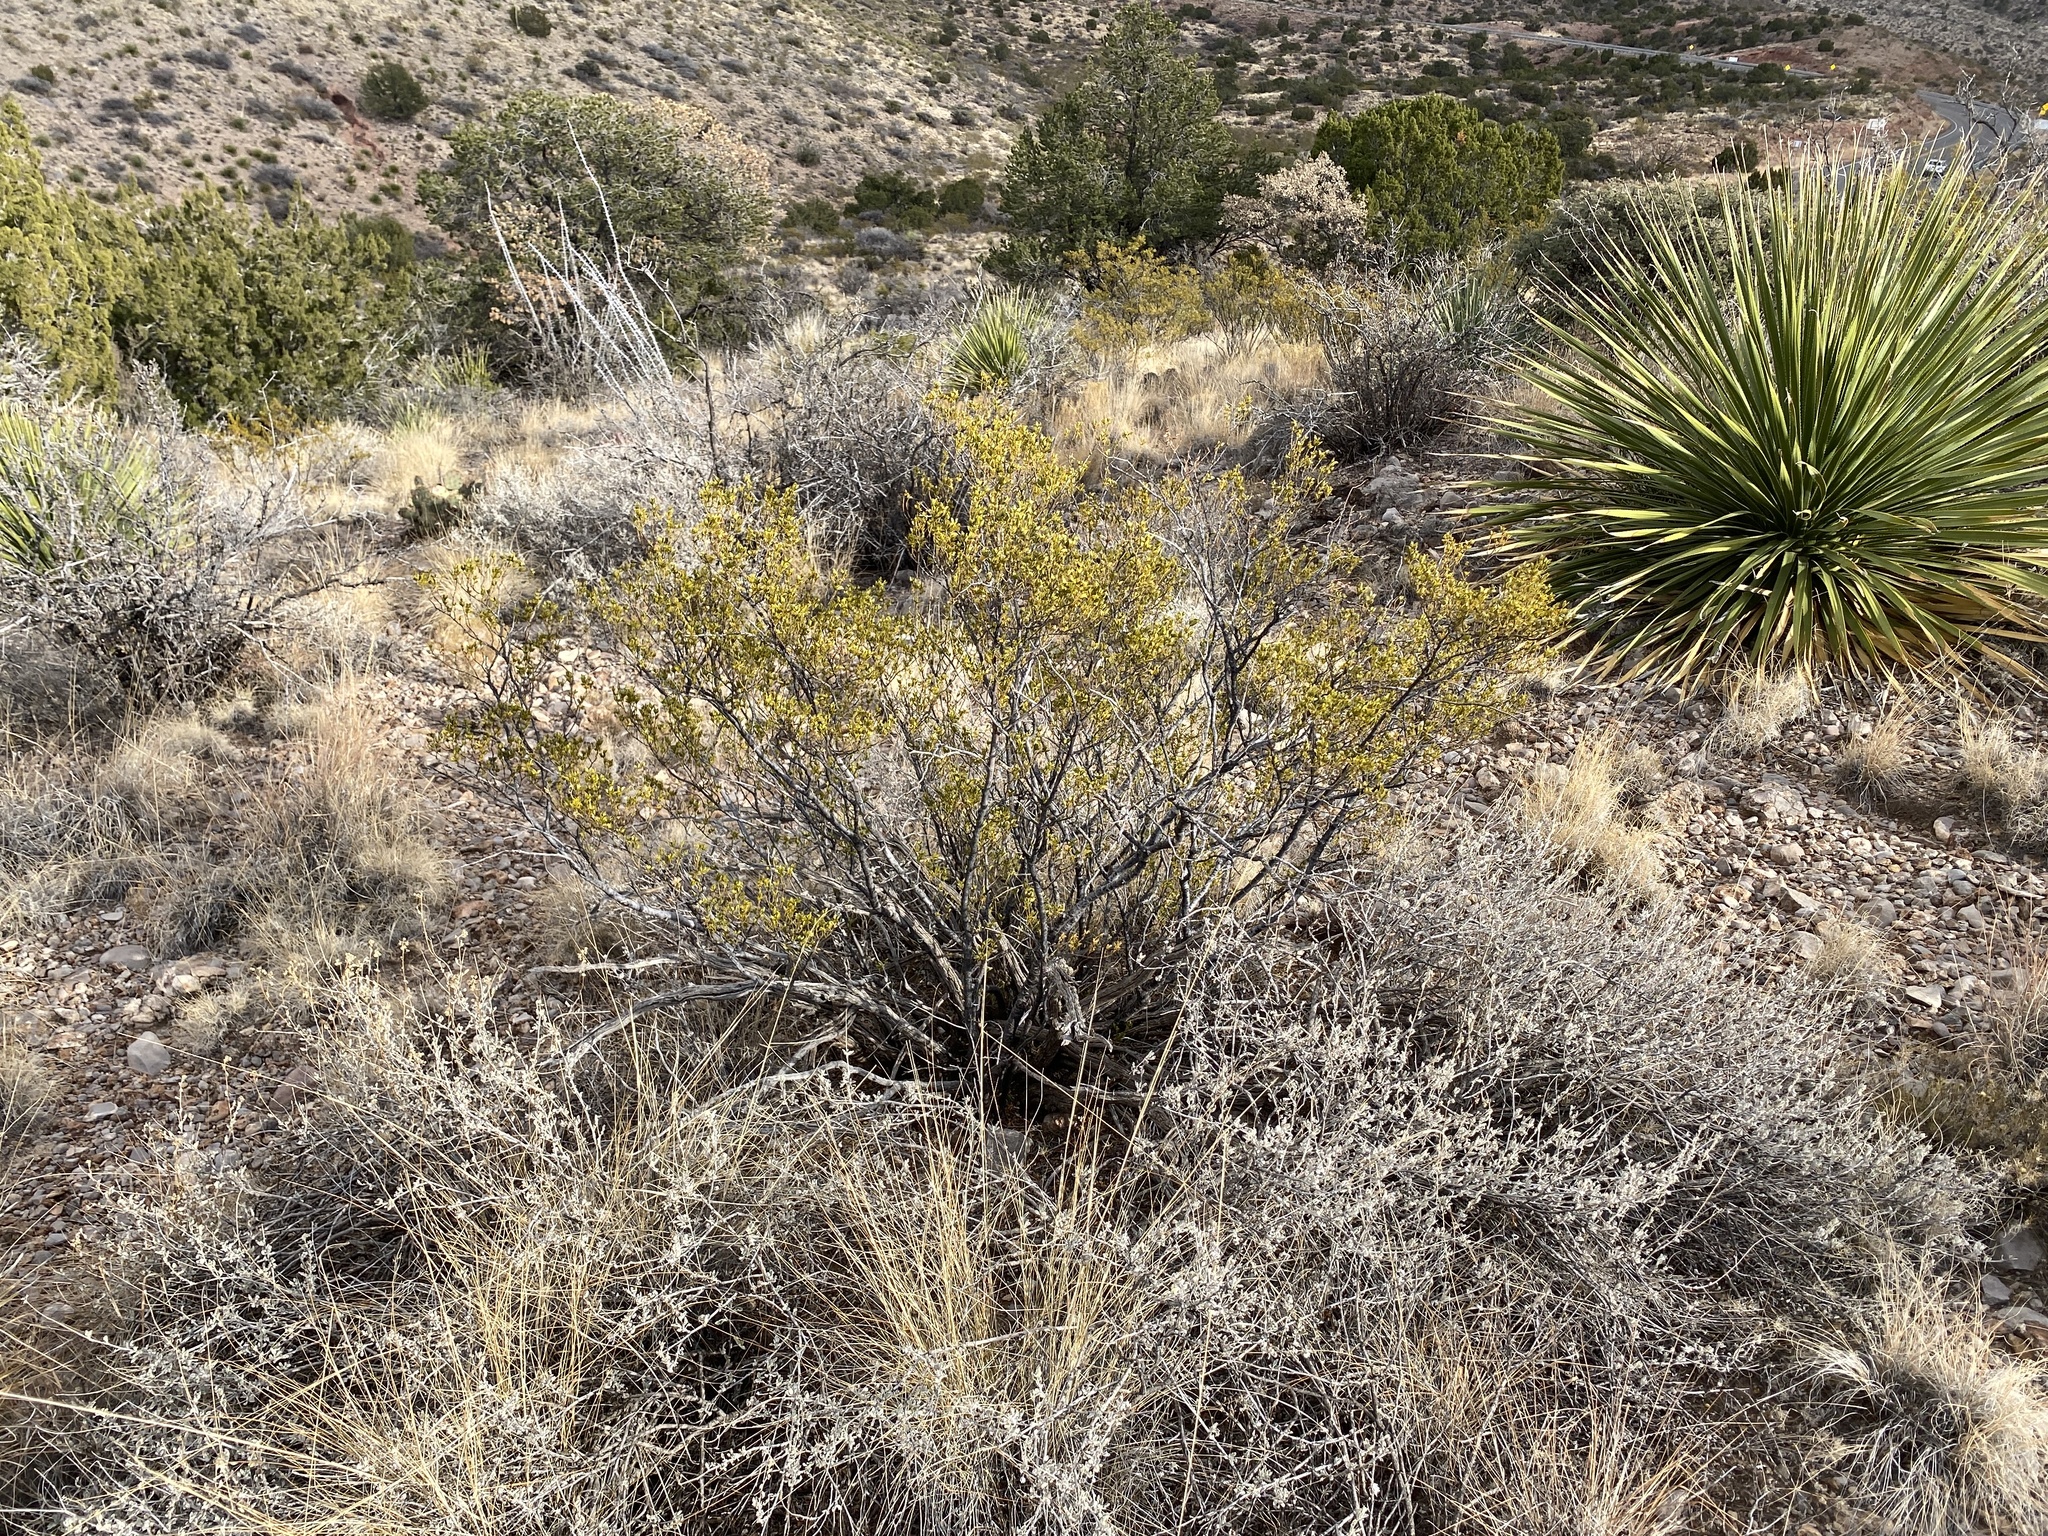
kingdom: Plantae
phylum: Tracheophyta
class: Magnoliopsida
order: Zygophyllales
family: Zygophyllaceae
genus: Larrea
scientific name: Larrea tridentata
